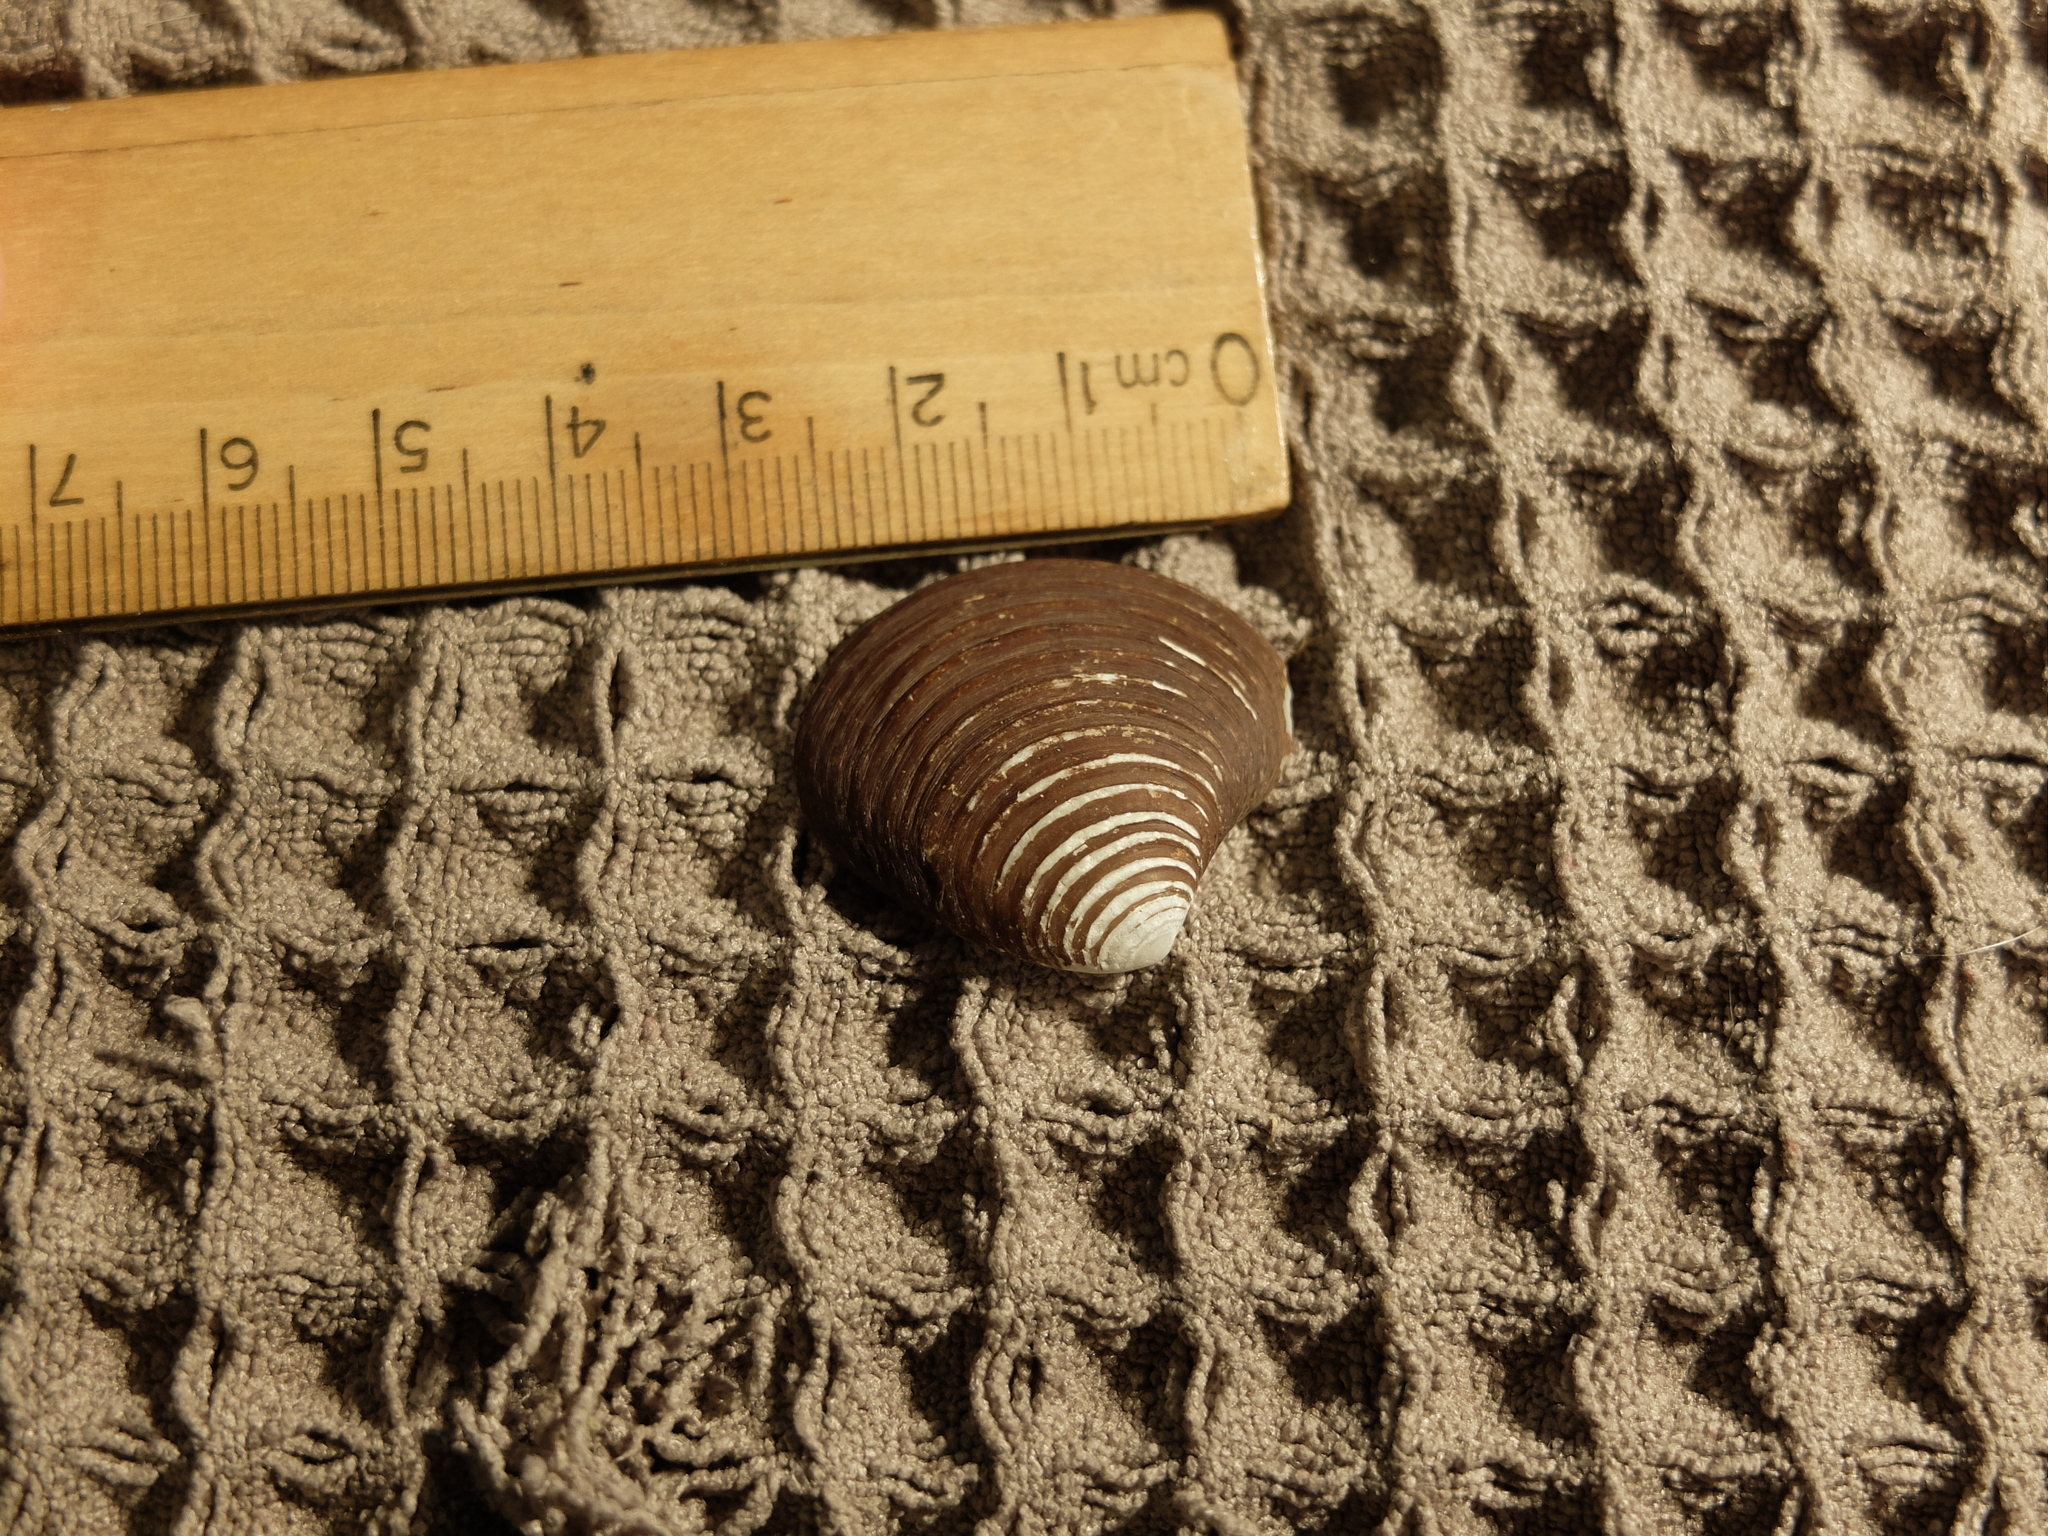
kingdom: Animalia
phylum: Mollusca
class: Bivalvia
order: Carditida
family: Astartidae
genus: Astarte
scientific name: Astarte undata
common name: Wavy astarte
